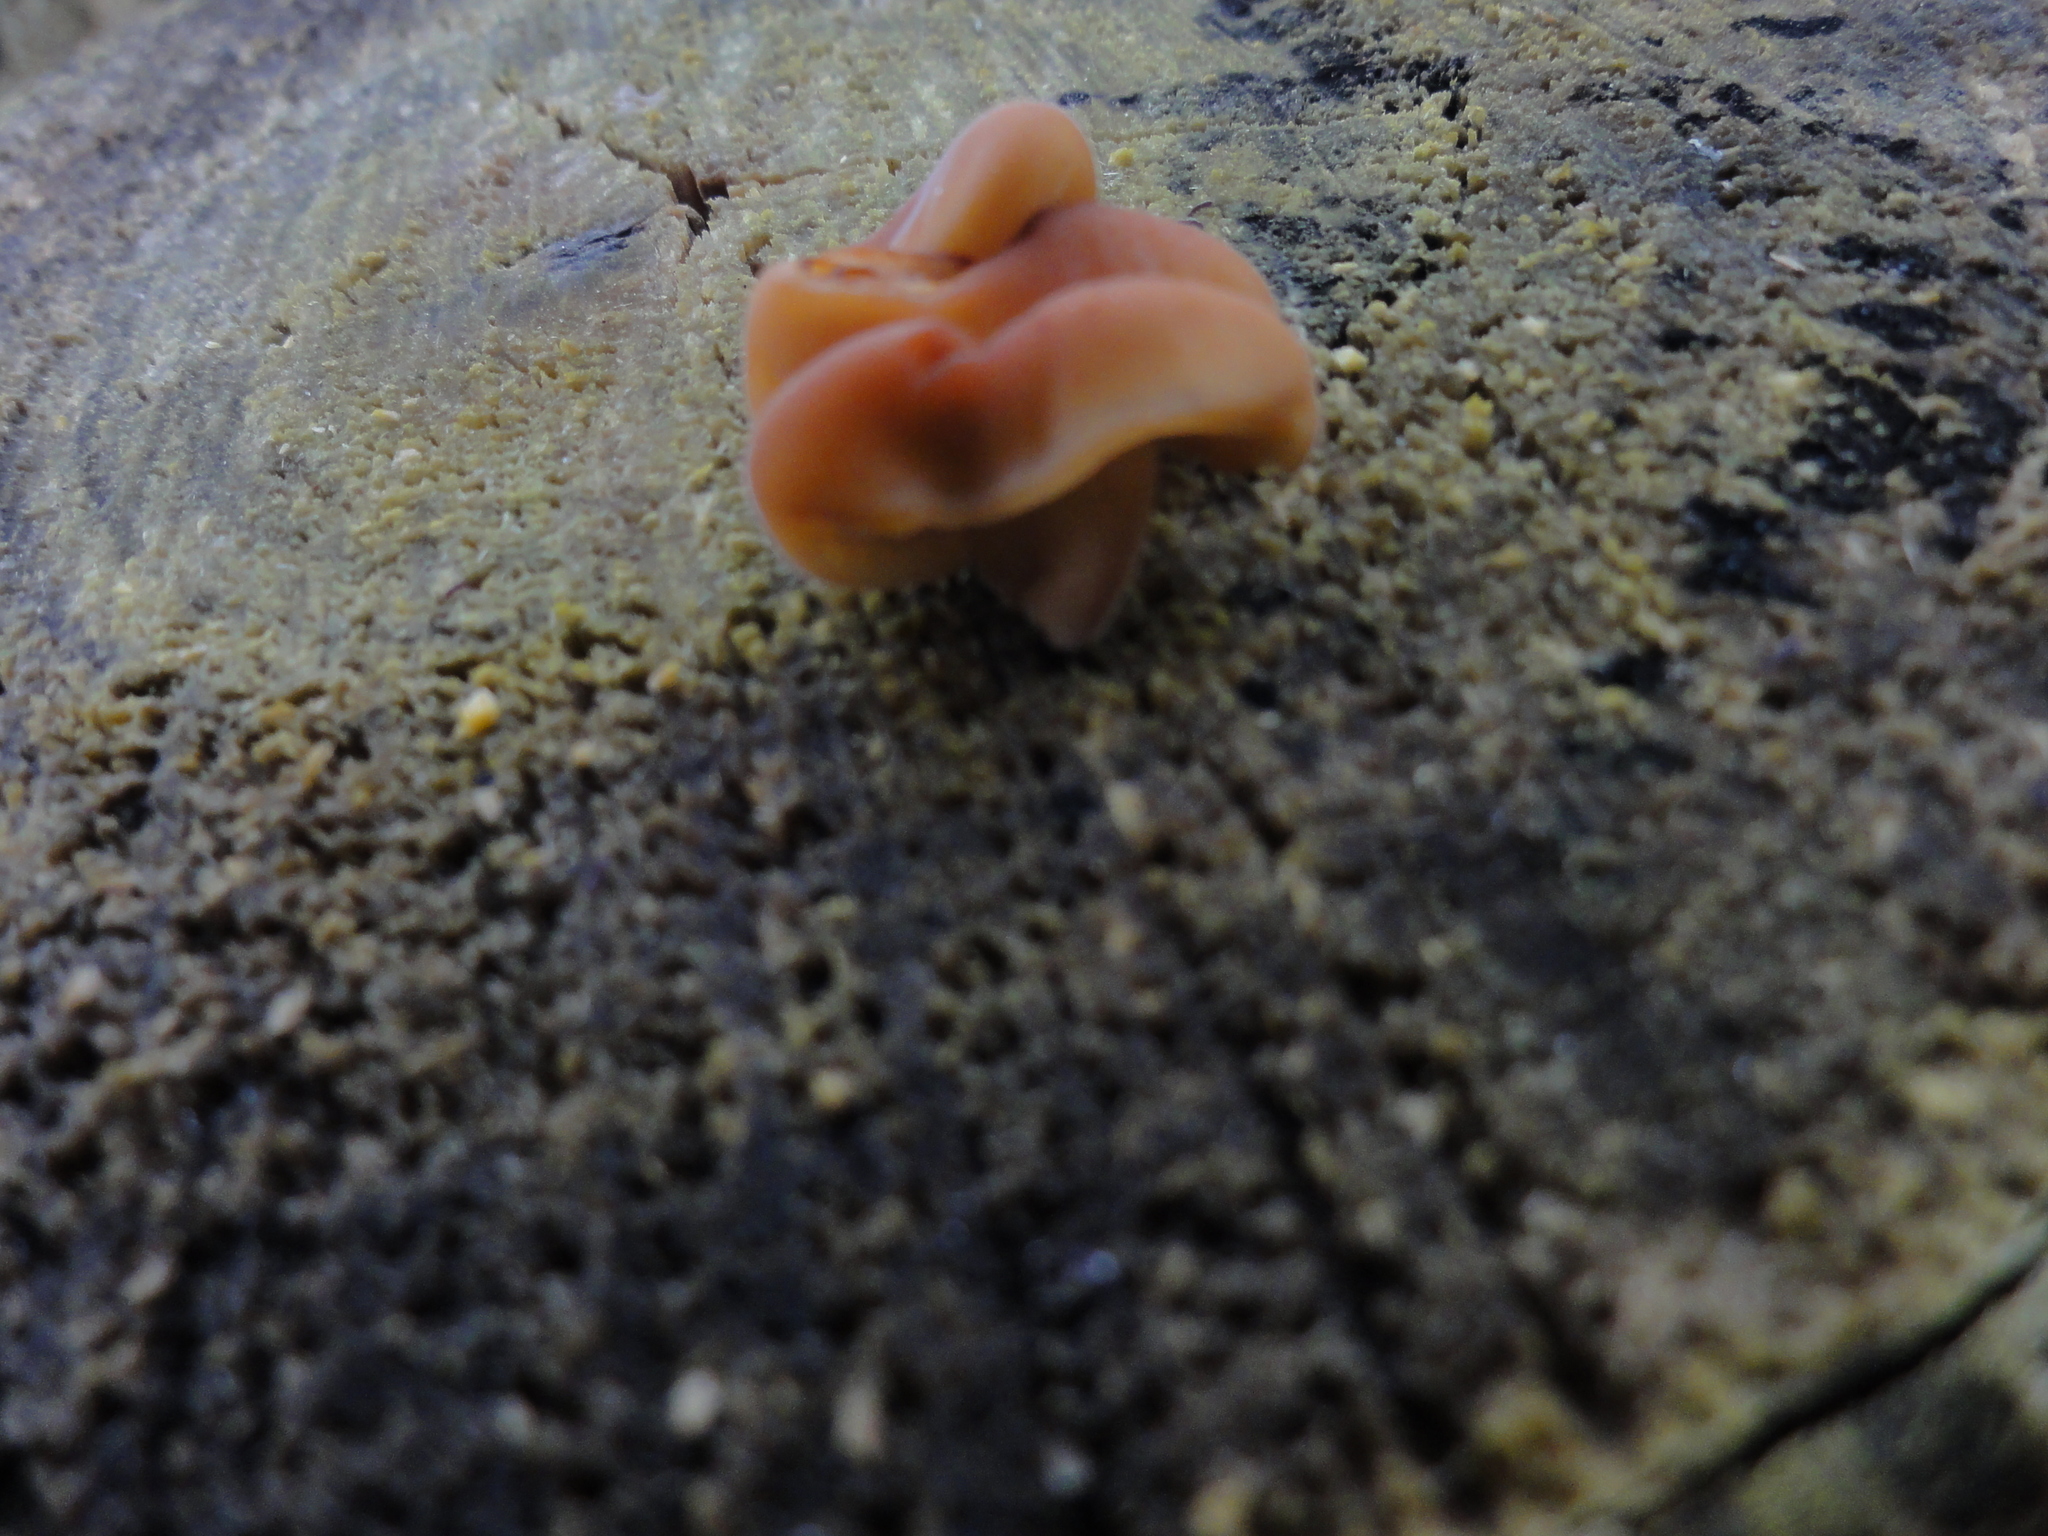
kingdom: Fungi
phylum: Basidiomycota
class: Agaricomycetes
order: Agaricales
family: Physalacriaceae
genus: Flammulina
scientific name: Flammulina
